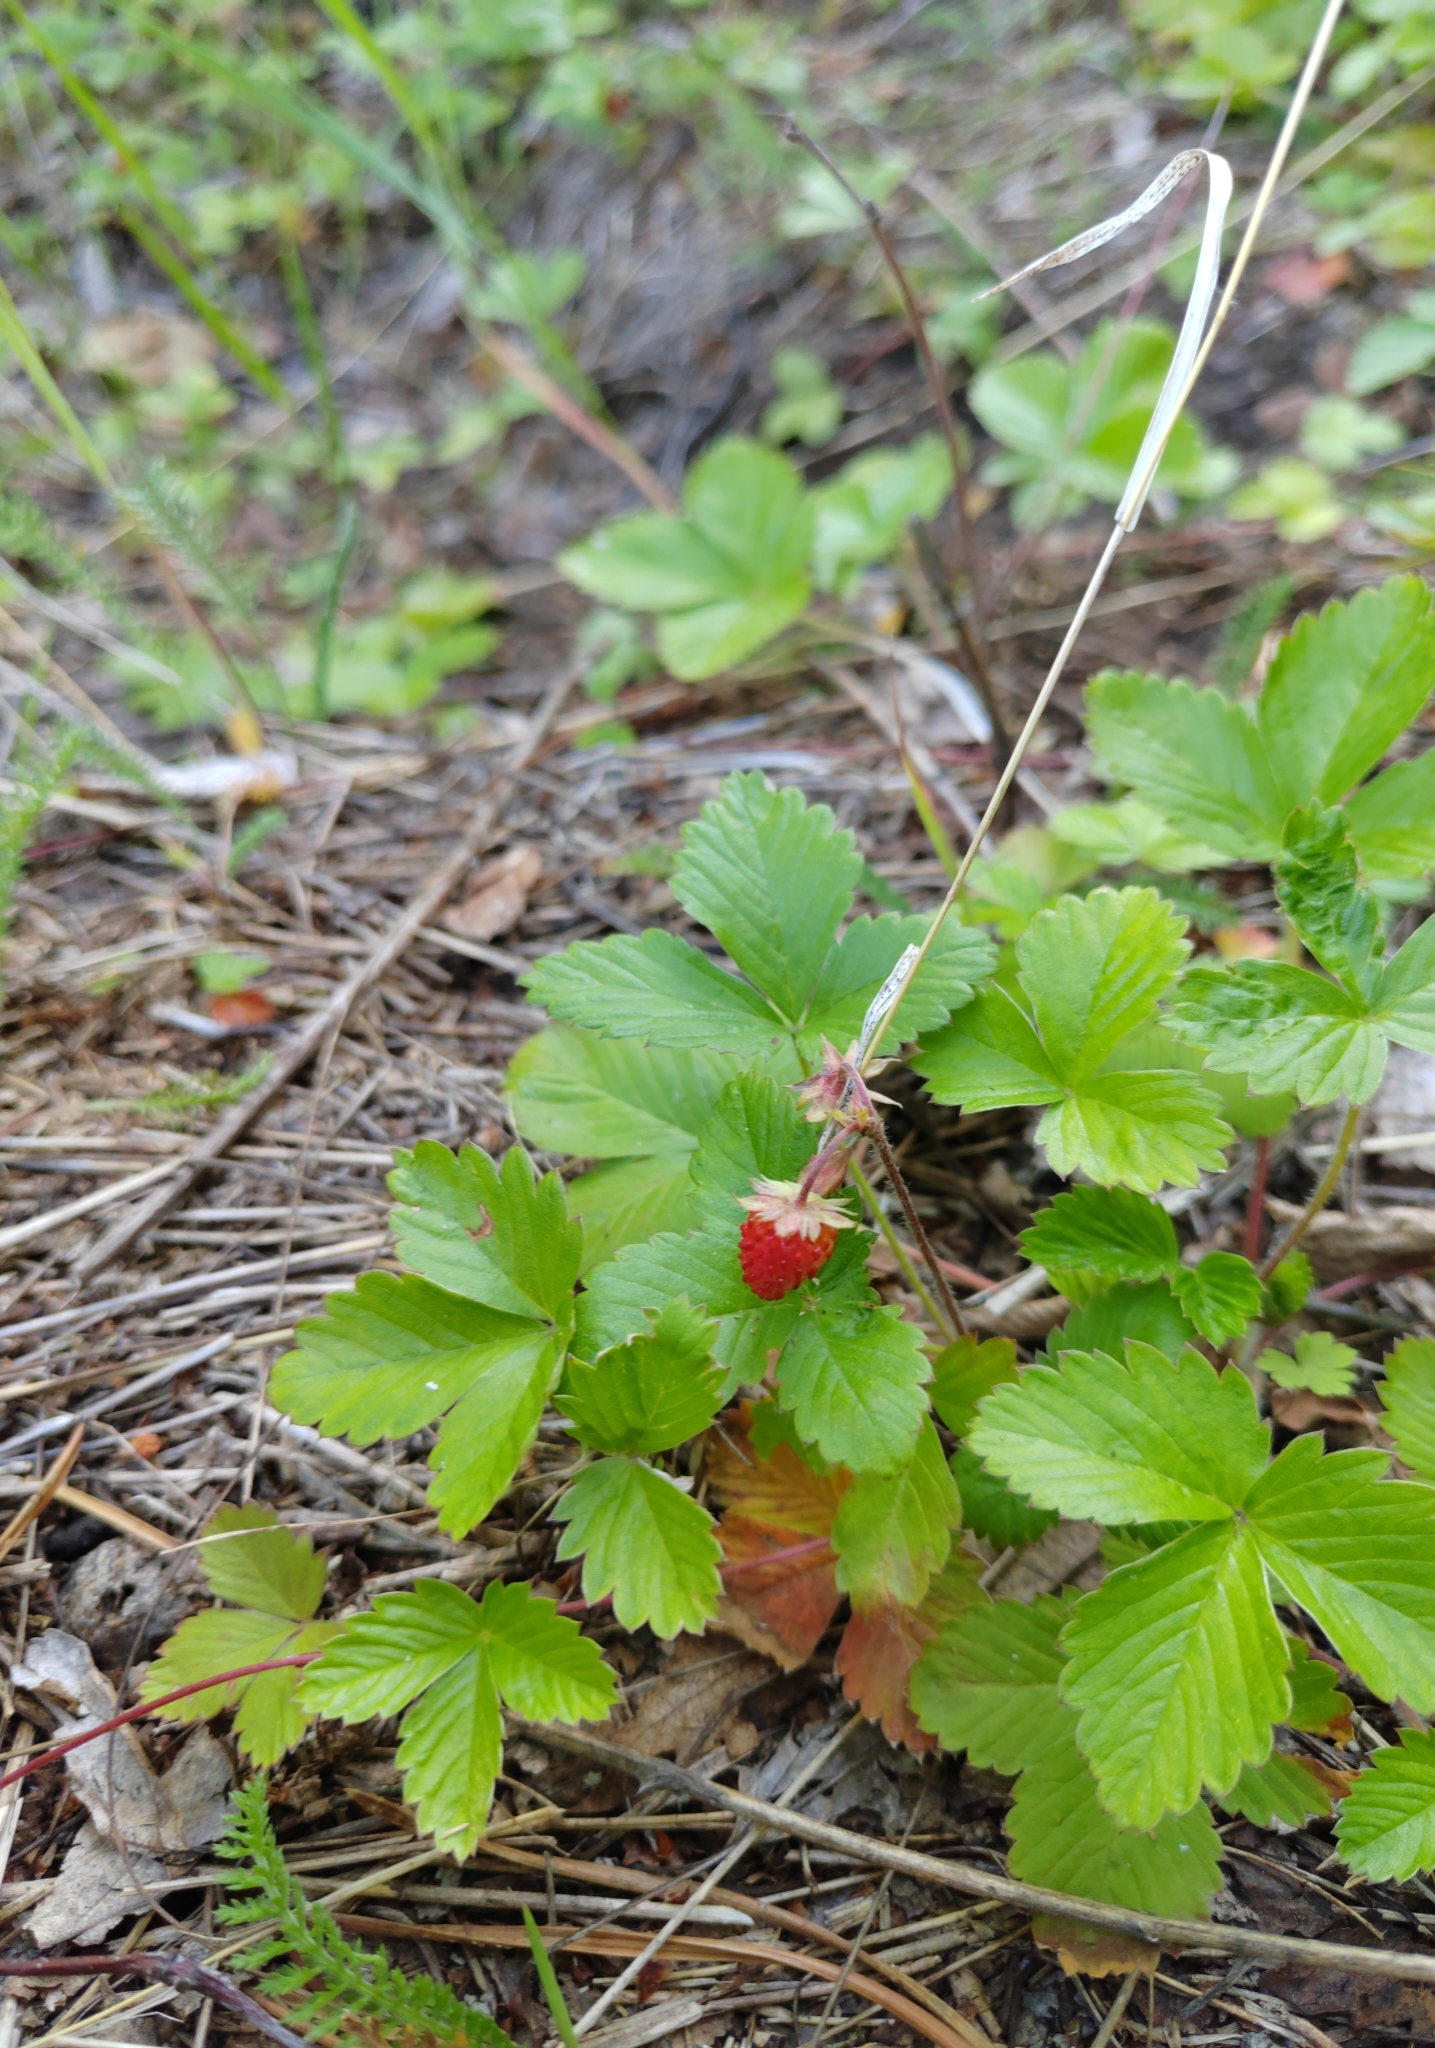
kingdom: Plantae
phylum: Tracheophyta
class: Magnoliopsida
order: Rosales
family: Rosaceae
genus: Fragaria
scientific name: Fragaria vesca
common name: Wild strawberry
